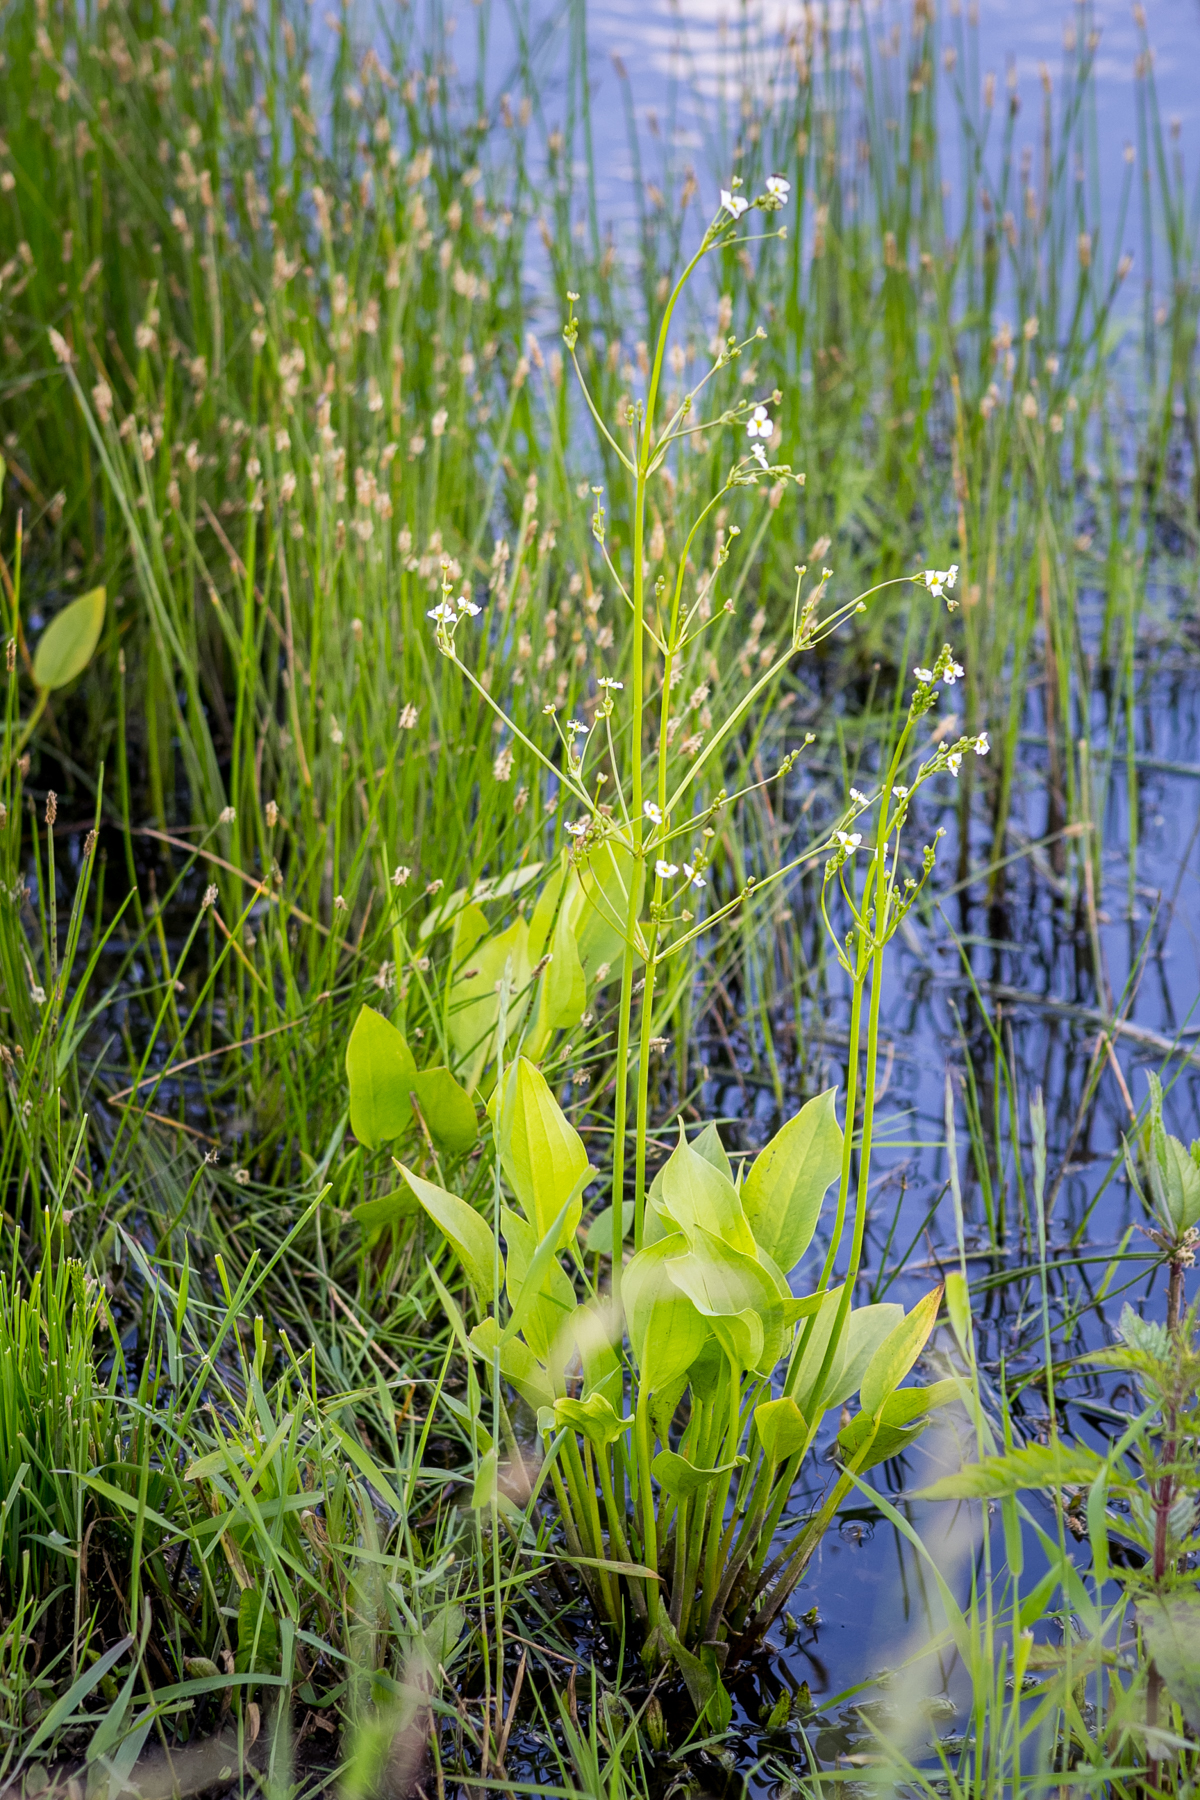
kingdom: Plantae
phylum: Tracheophyta
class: Liliopsida
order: Alismatales
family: Alismataceae
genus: Alisma
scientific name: Alisma plantago-aquatica
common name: Water-plantain
